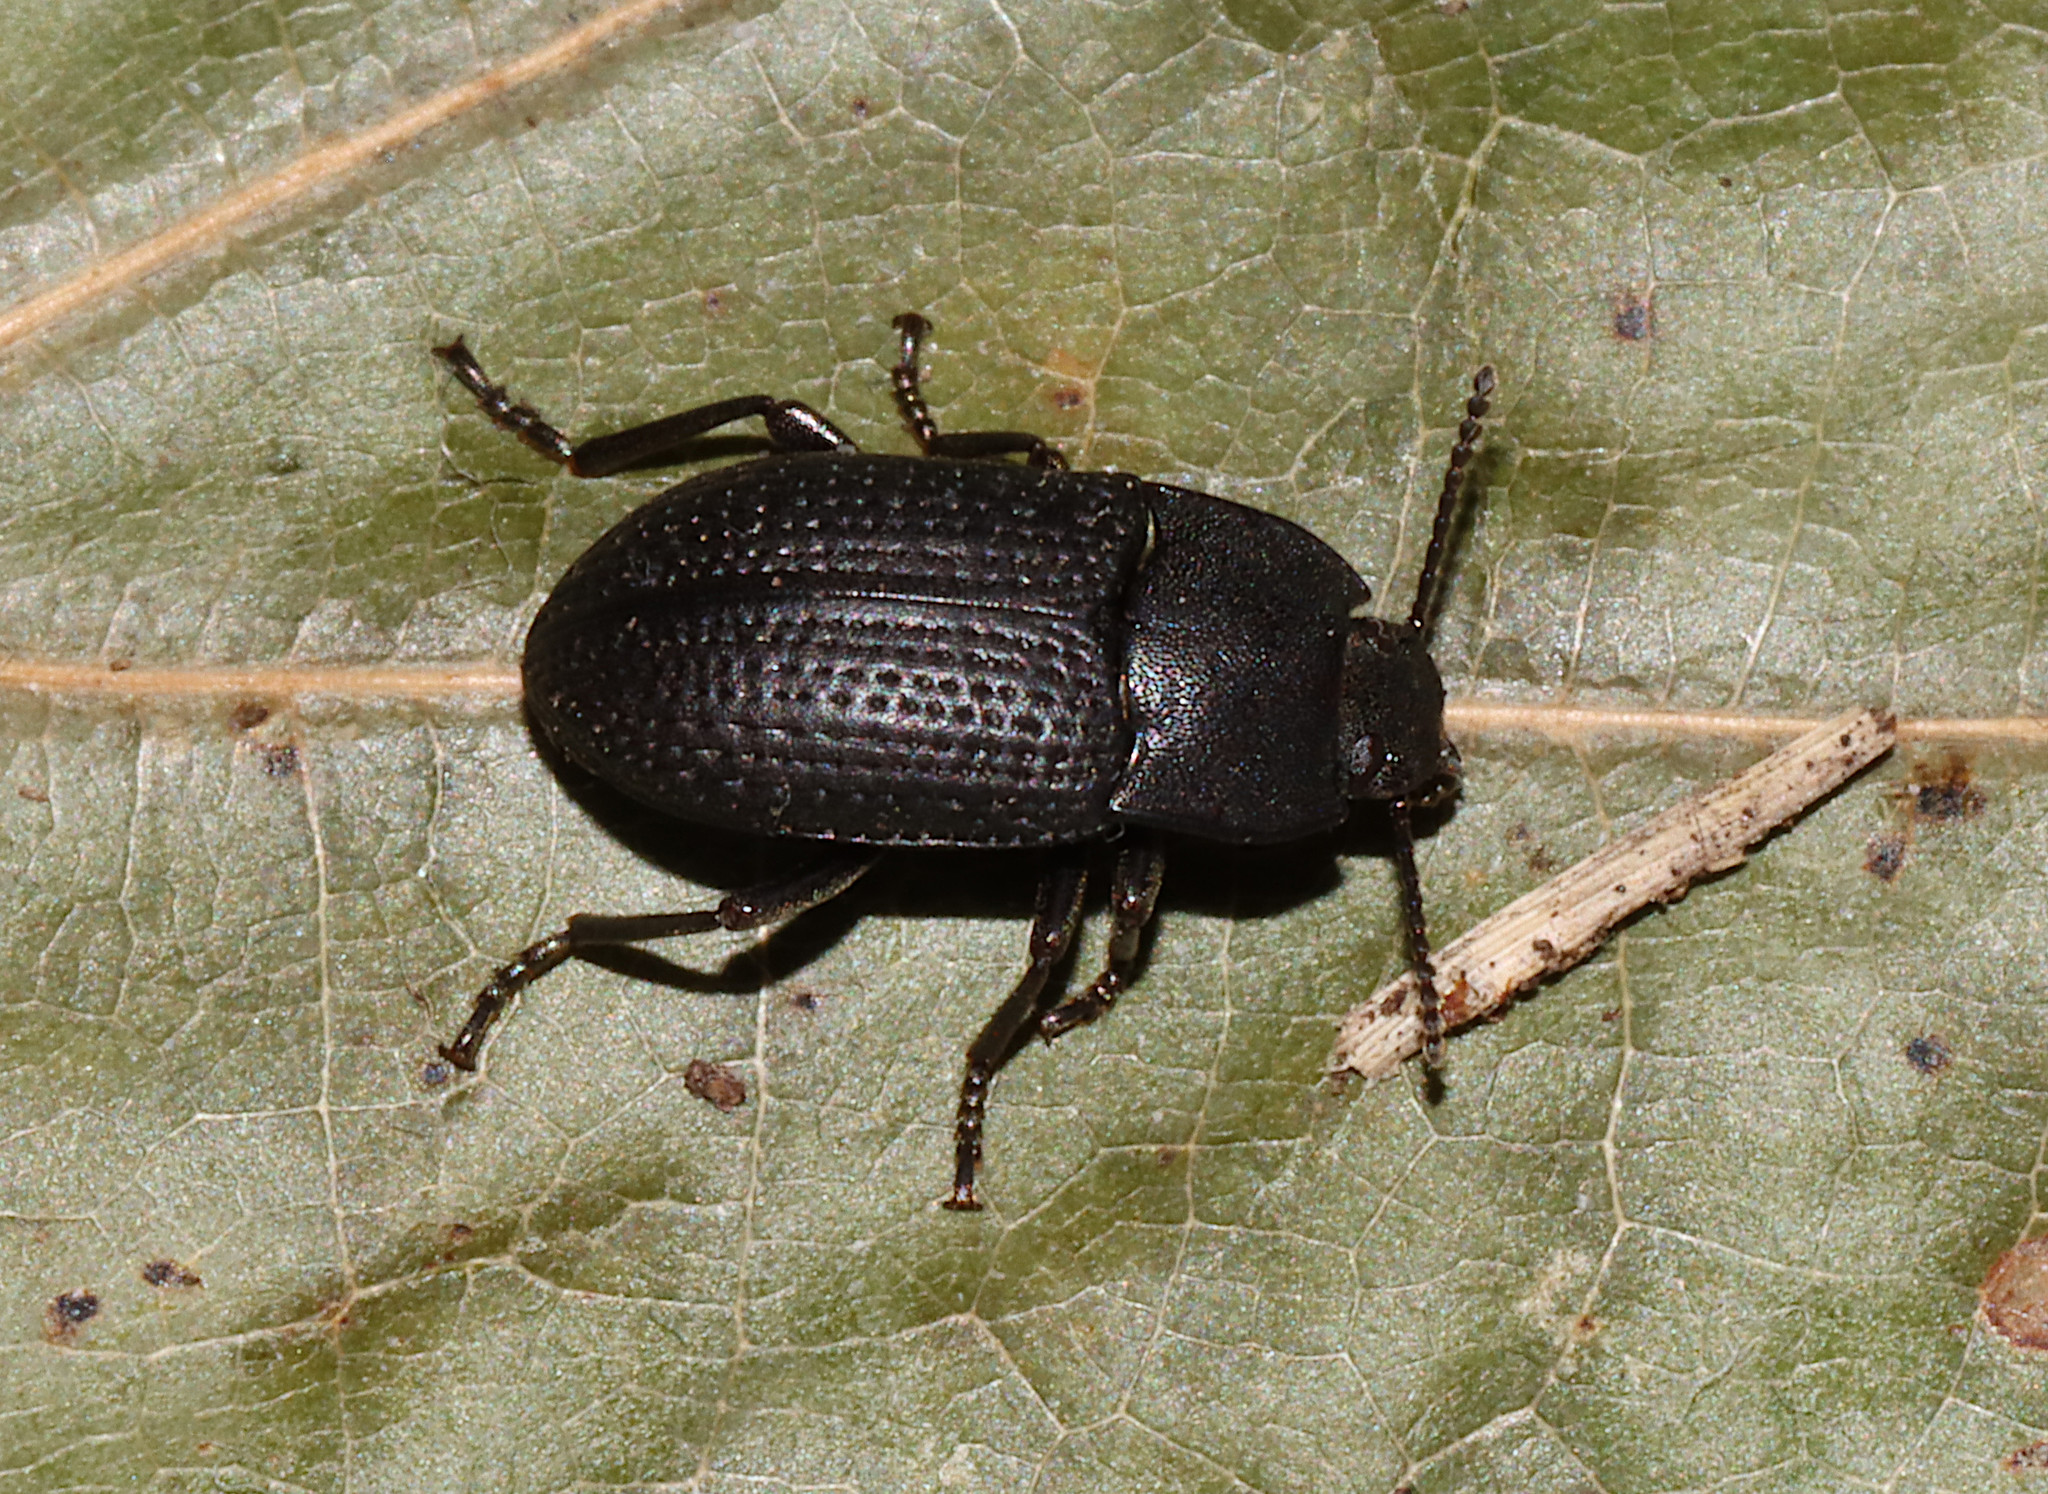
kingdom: Animalia
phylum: Arthropoda
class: Insecta
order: Coleoptera
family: Tenebrionidae
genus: Asiopus
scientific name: Asiopus
